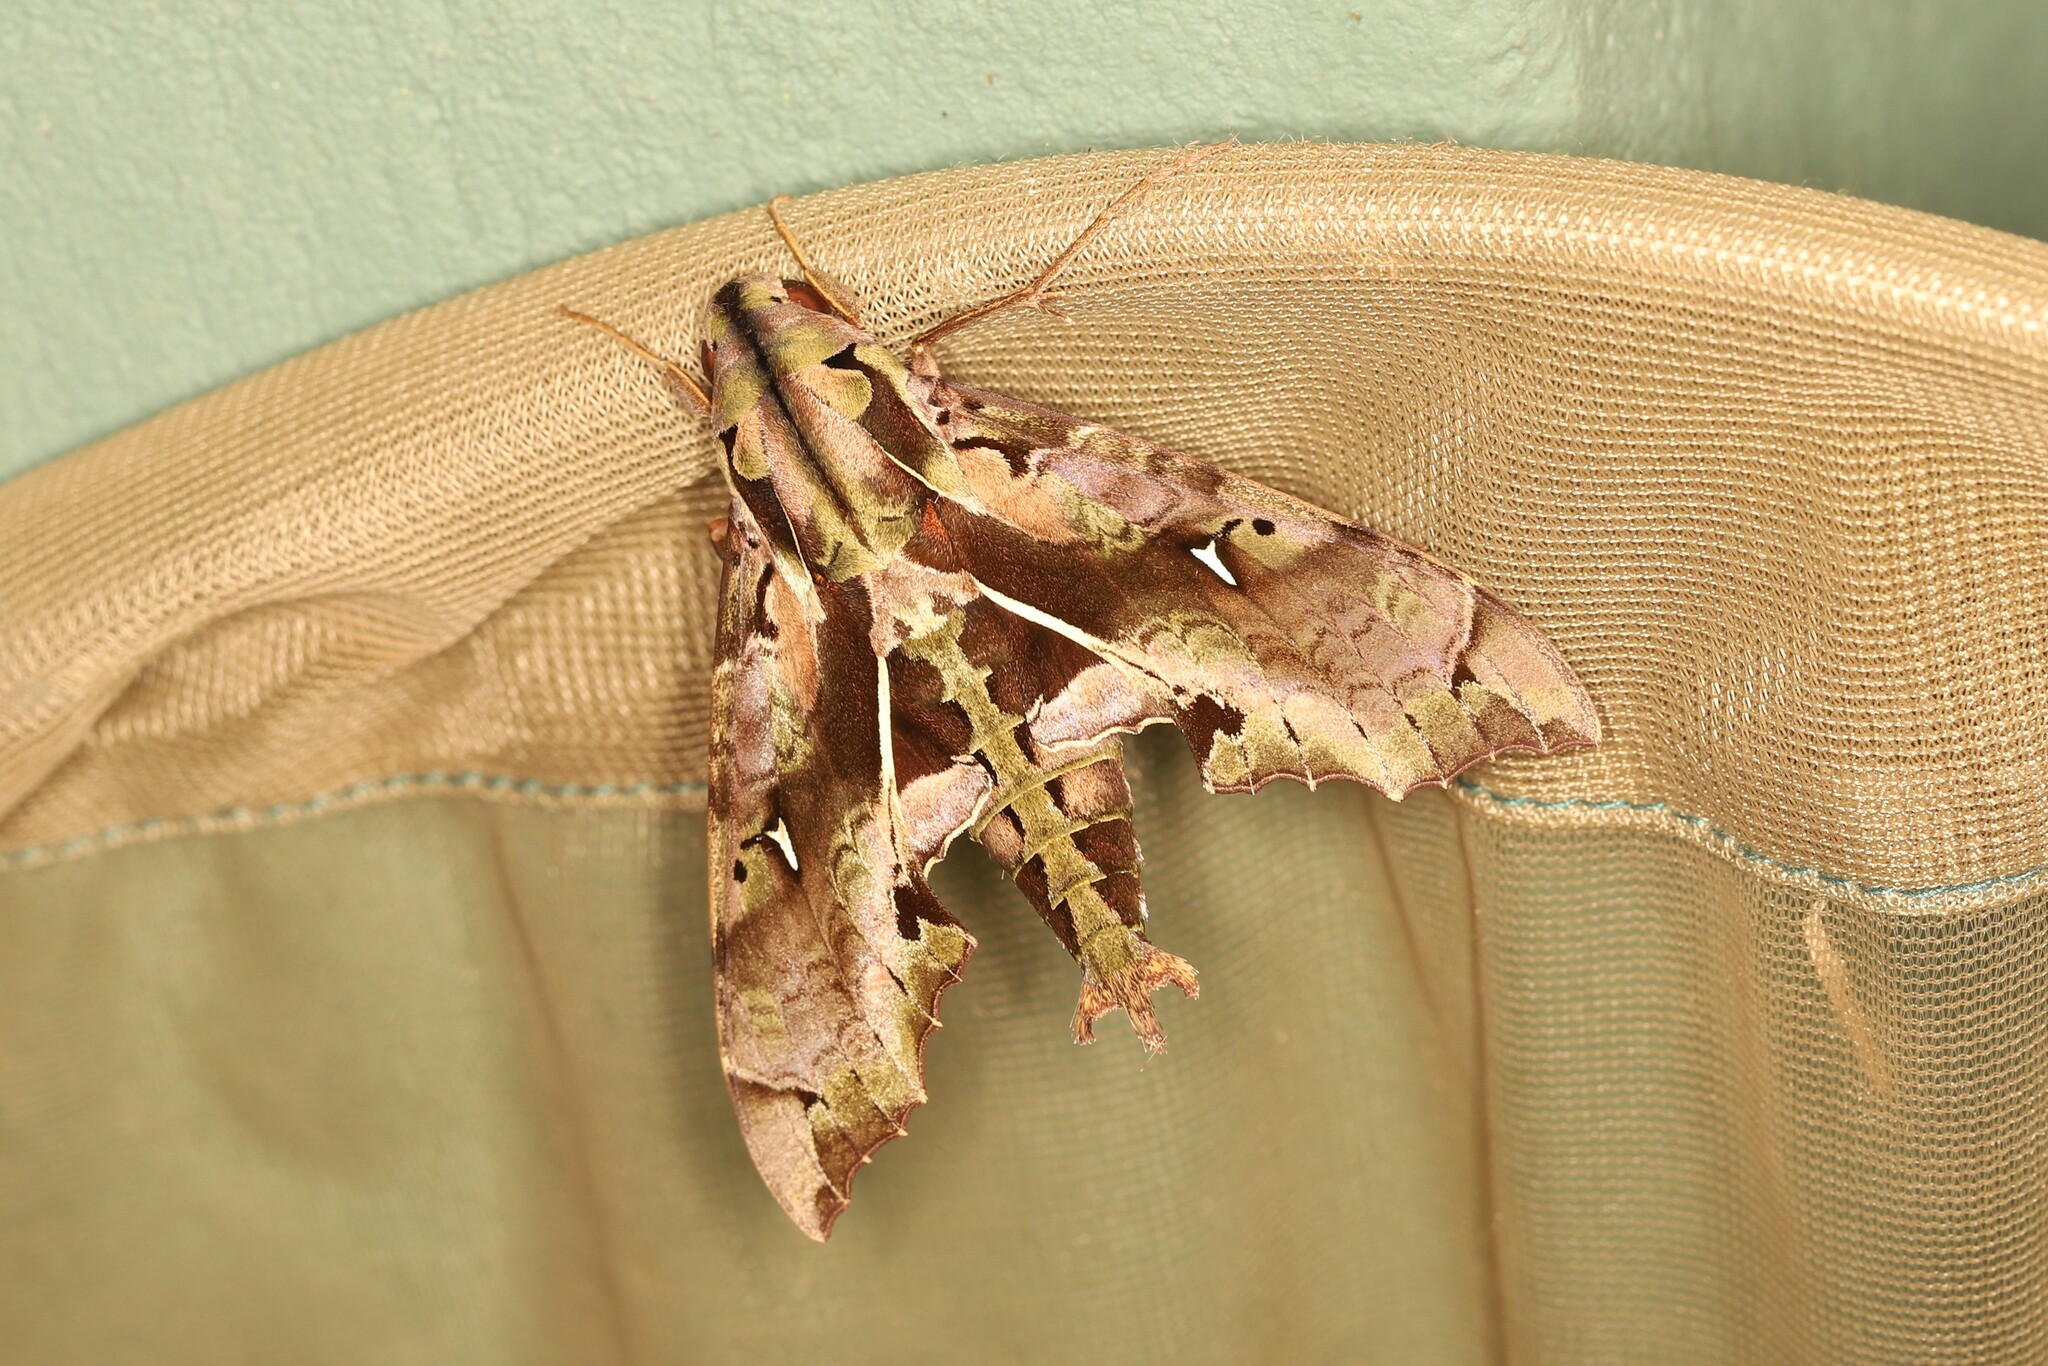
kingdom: Animalia
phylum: Arthropoda
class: Insecta
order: Lepidoptera
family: Sphingidae
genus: Hemeroplanes
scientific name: Hemeroplanes ornatus
